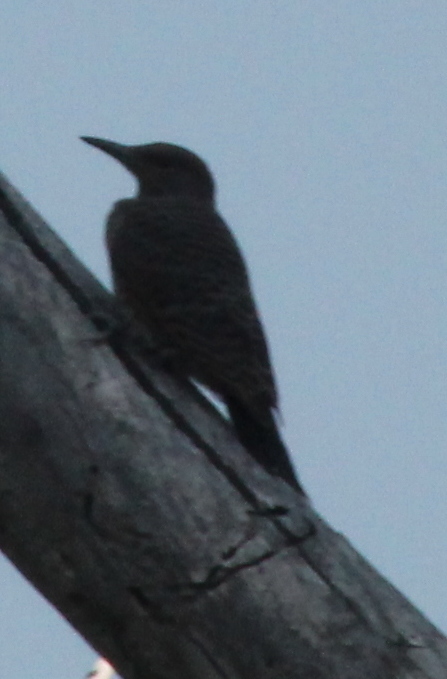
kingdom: Animalia
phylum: Chordata
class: Aves
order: Piciformes
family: Picidae
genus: Colaptes
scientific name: Colaptes auratus
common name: Northern flicker
